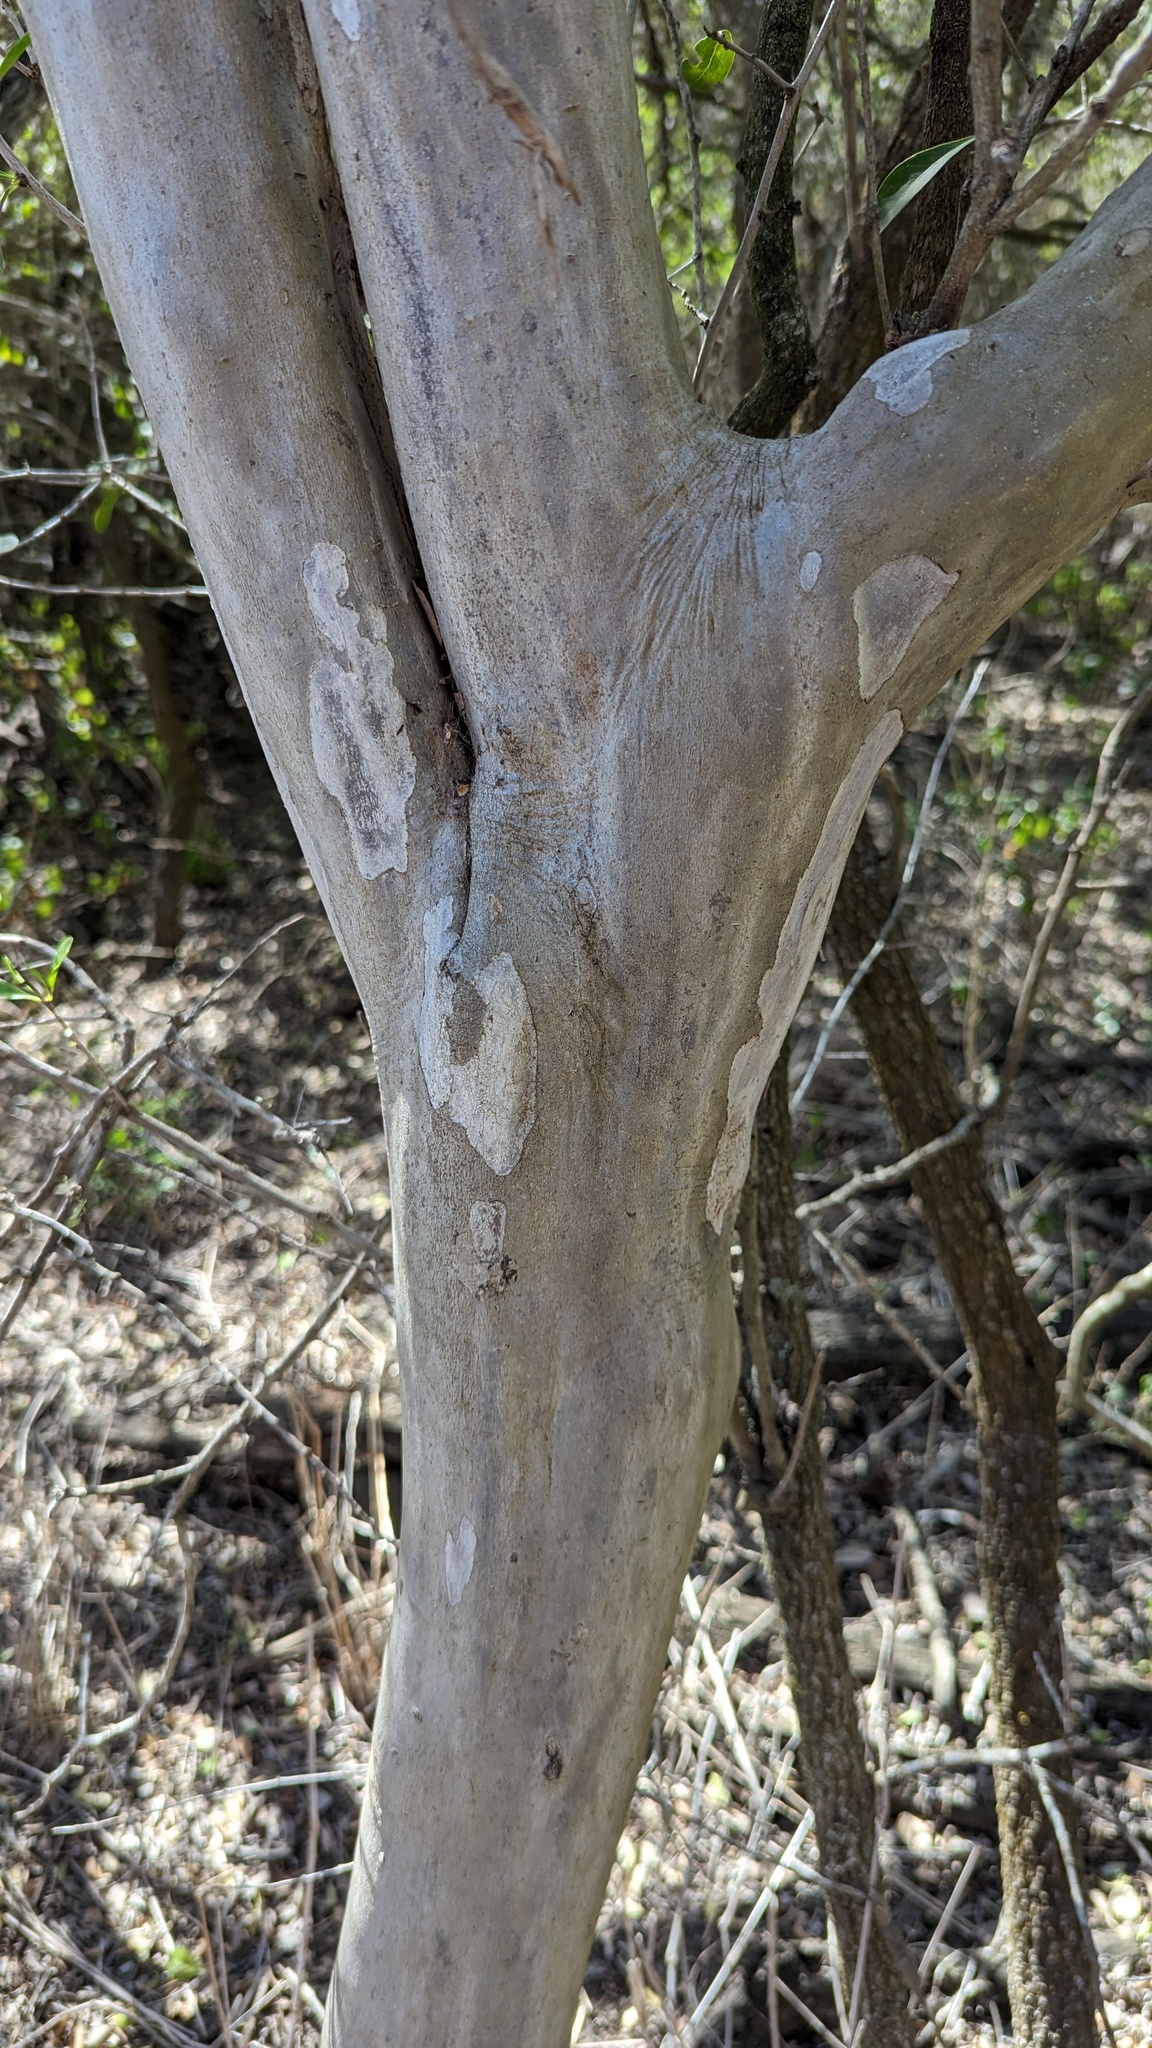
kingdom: Plantae
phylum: Tracheophyta
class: Magnoliopsida
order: Zygophyllales
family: Zygophyllaceae
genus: Porlieria
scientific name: Porlieria angustifolia
